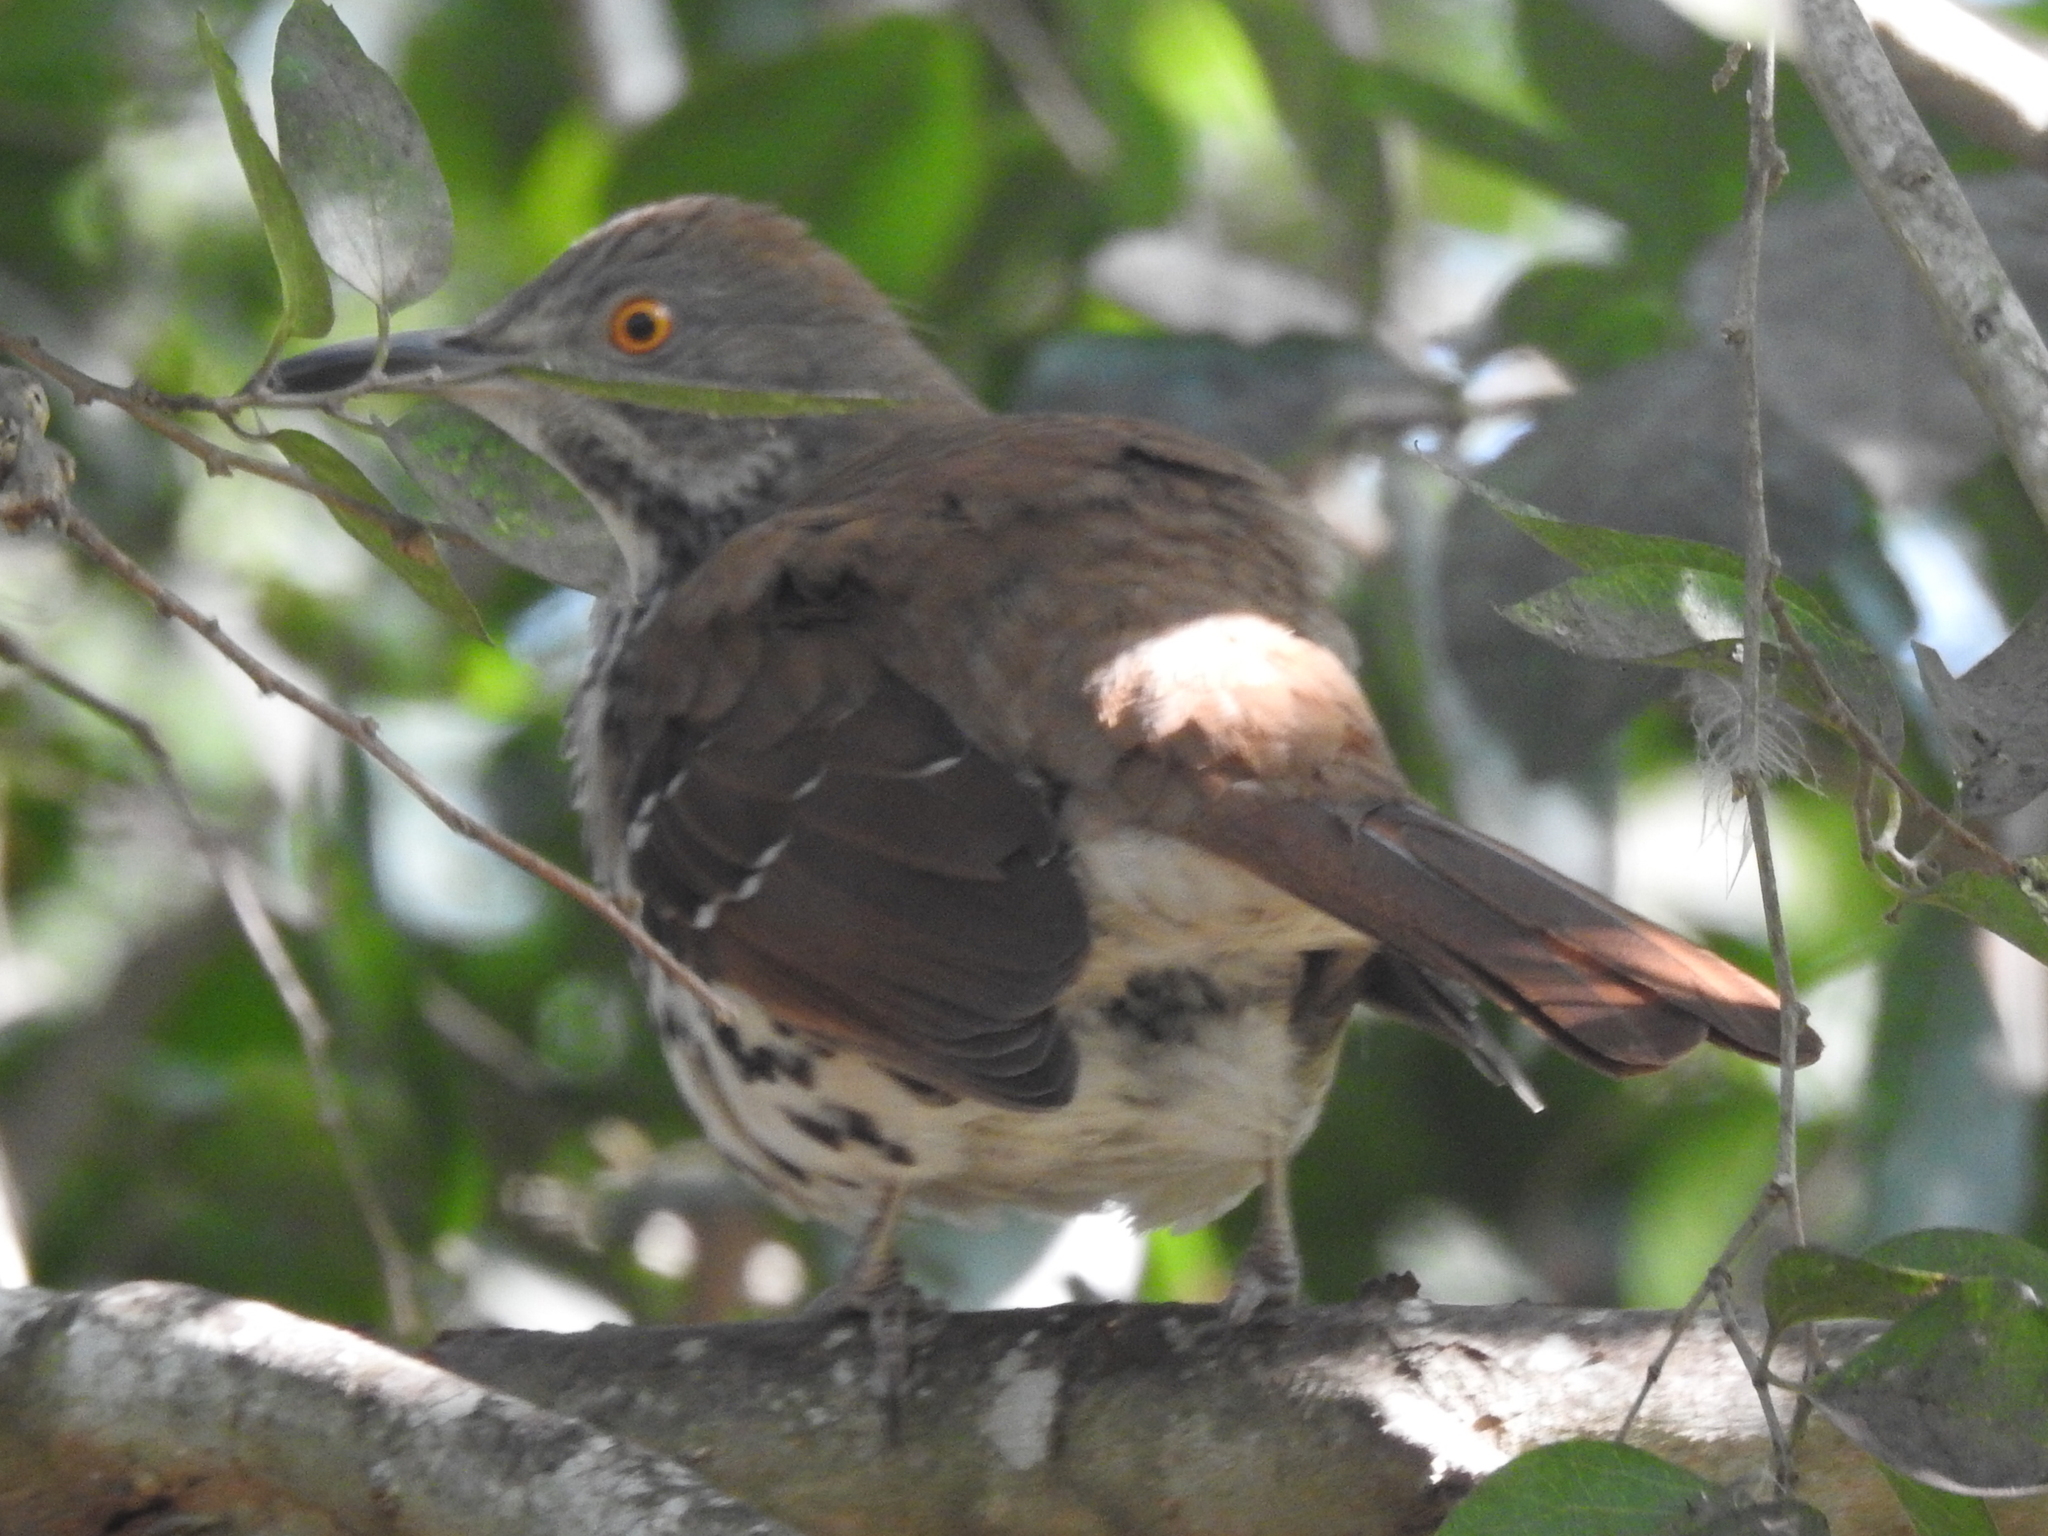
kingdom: Animalia
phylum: Chordata
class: Aves
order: Passeriformes
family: Mimidae
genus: Toxostoma
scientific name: Toxostoma longirostre
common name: Long-billed thrasher
